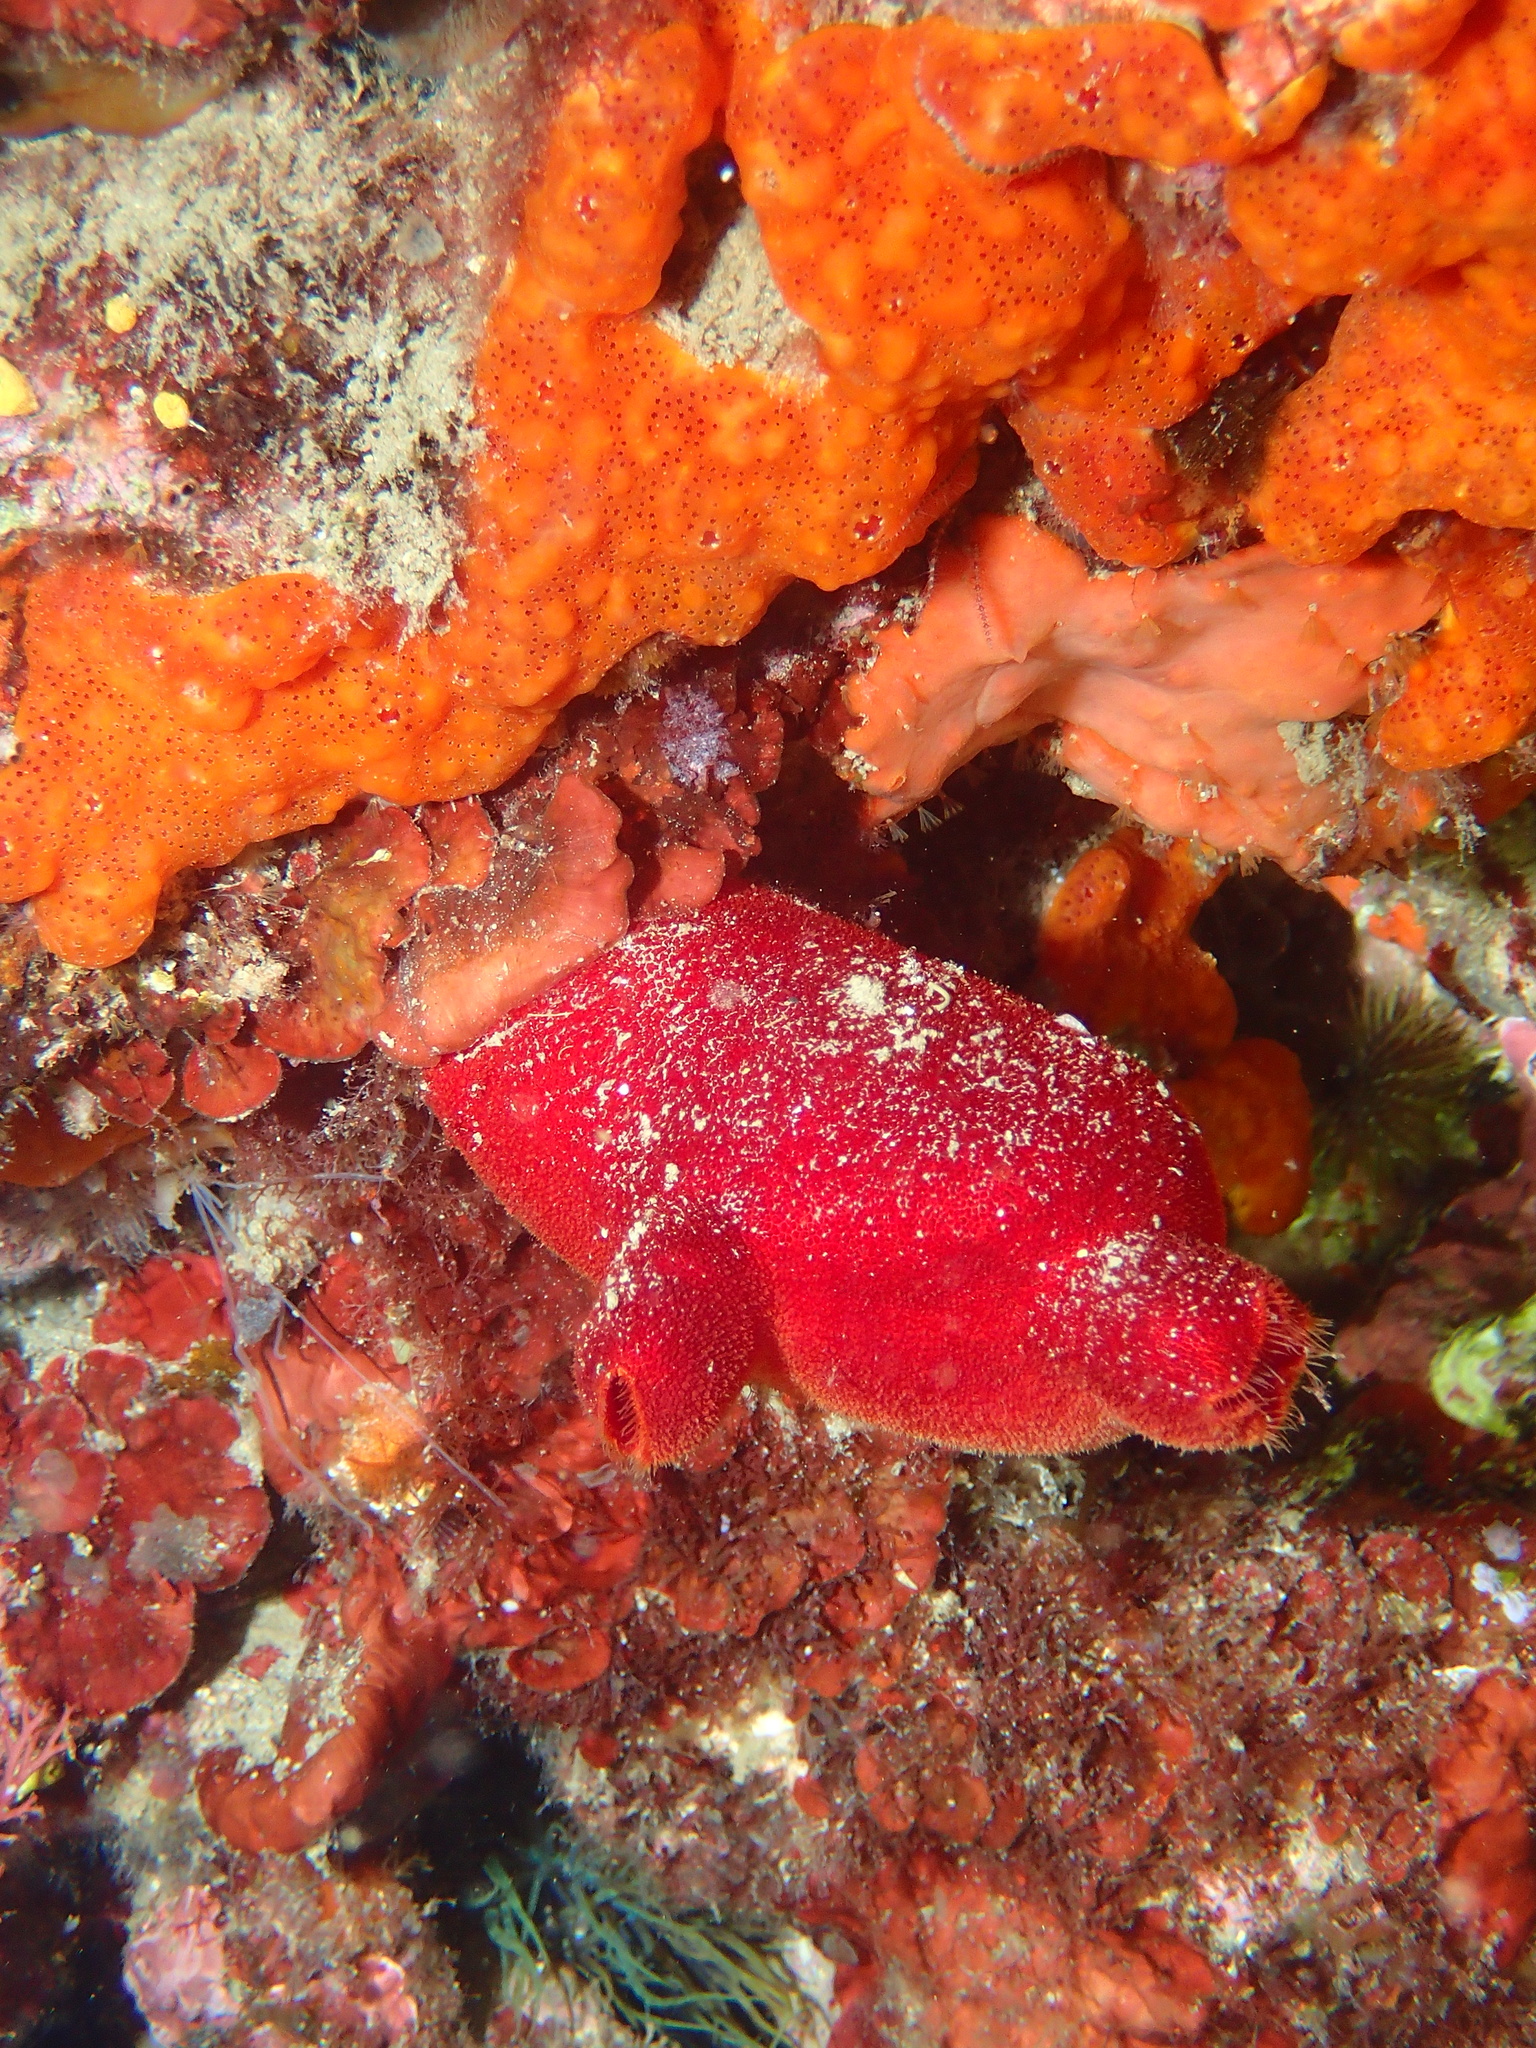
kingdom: Animalia
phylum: Chordata
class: Ascidiacea
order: Stolidobranchia
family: Pyuridae
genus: Halocynthia
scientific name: Halocynthia papillosa
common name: Red sea-squirt
